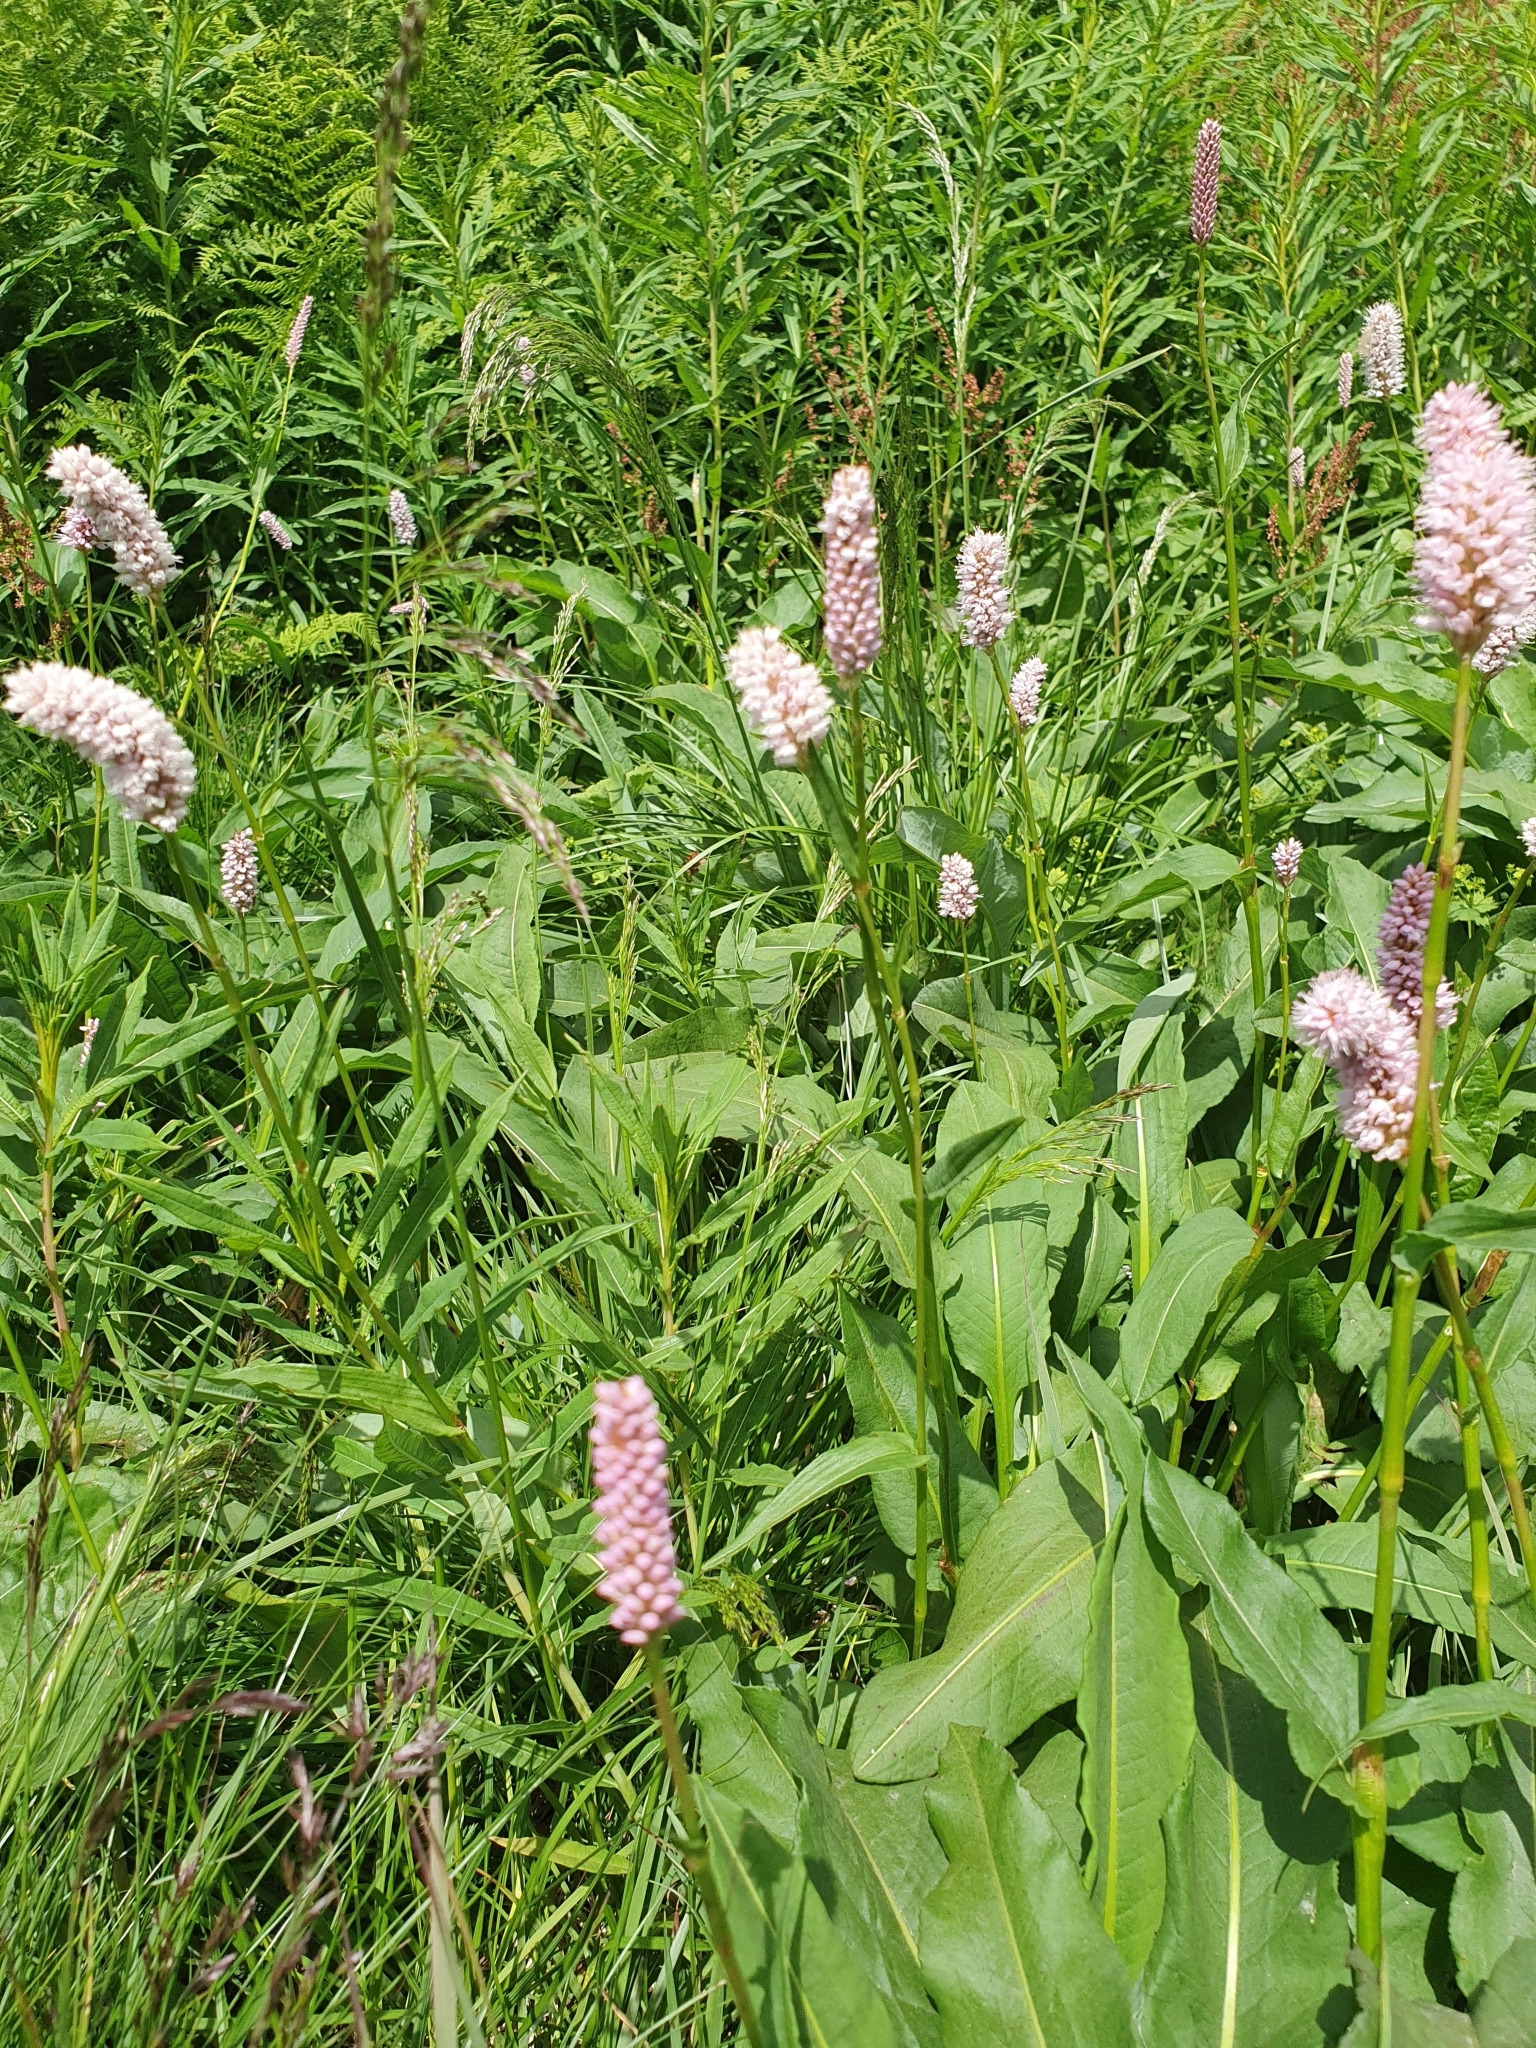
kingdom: Plantae
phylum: Tracheophyta
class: Magnoliopsida
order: Caryophyllales
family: Polygonaceae
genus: Bistorta
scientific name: Bistorta officinalis
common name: Common bistort
